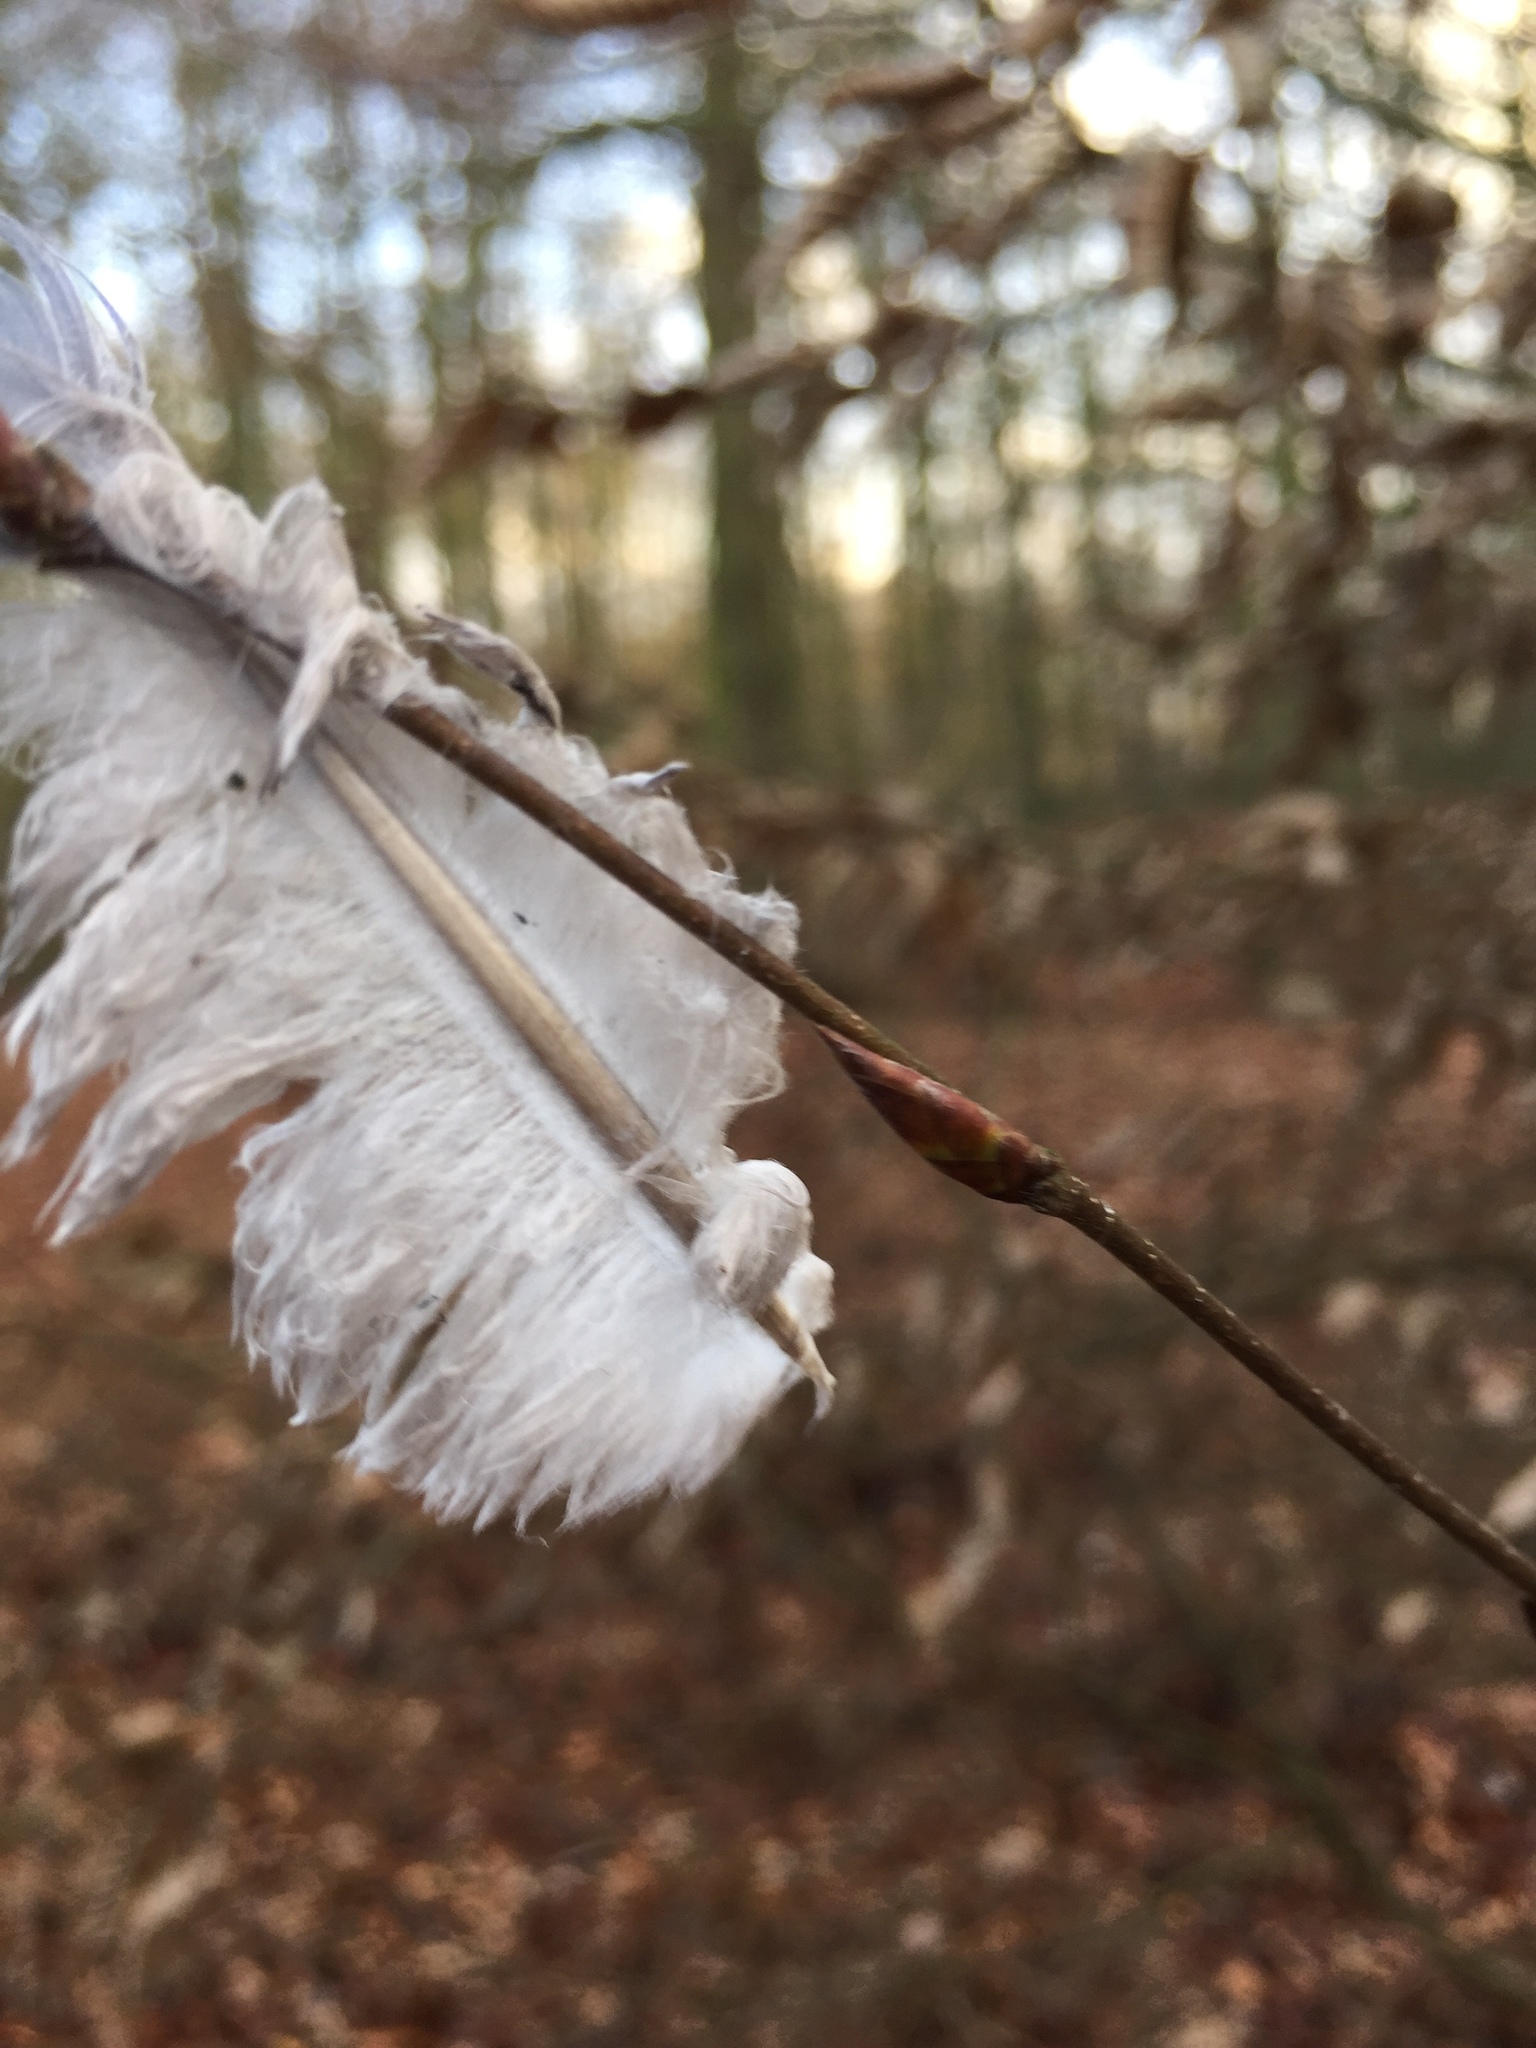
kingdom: Animalia
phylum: Chordata
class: Aves
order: Columbiformes
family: Columbidae
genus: Columba
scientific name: Columba palumbus
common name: Common wood pigeon
